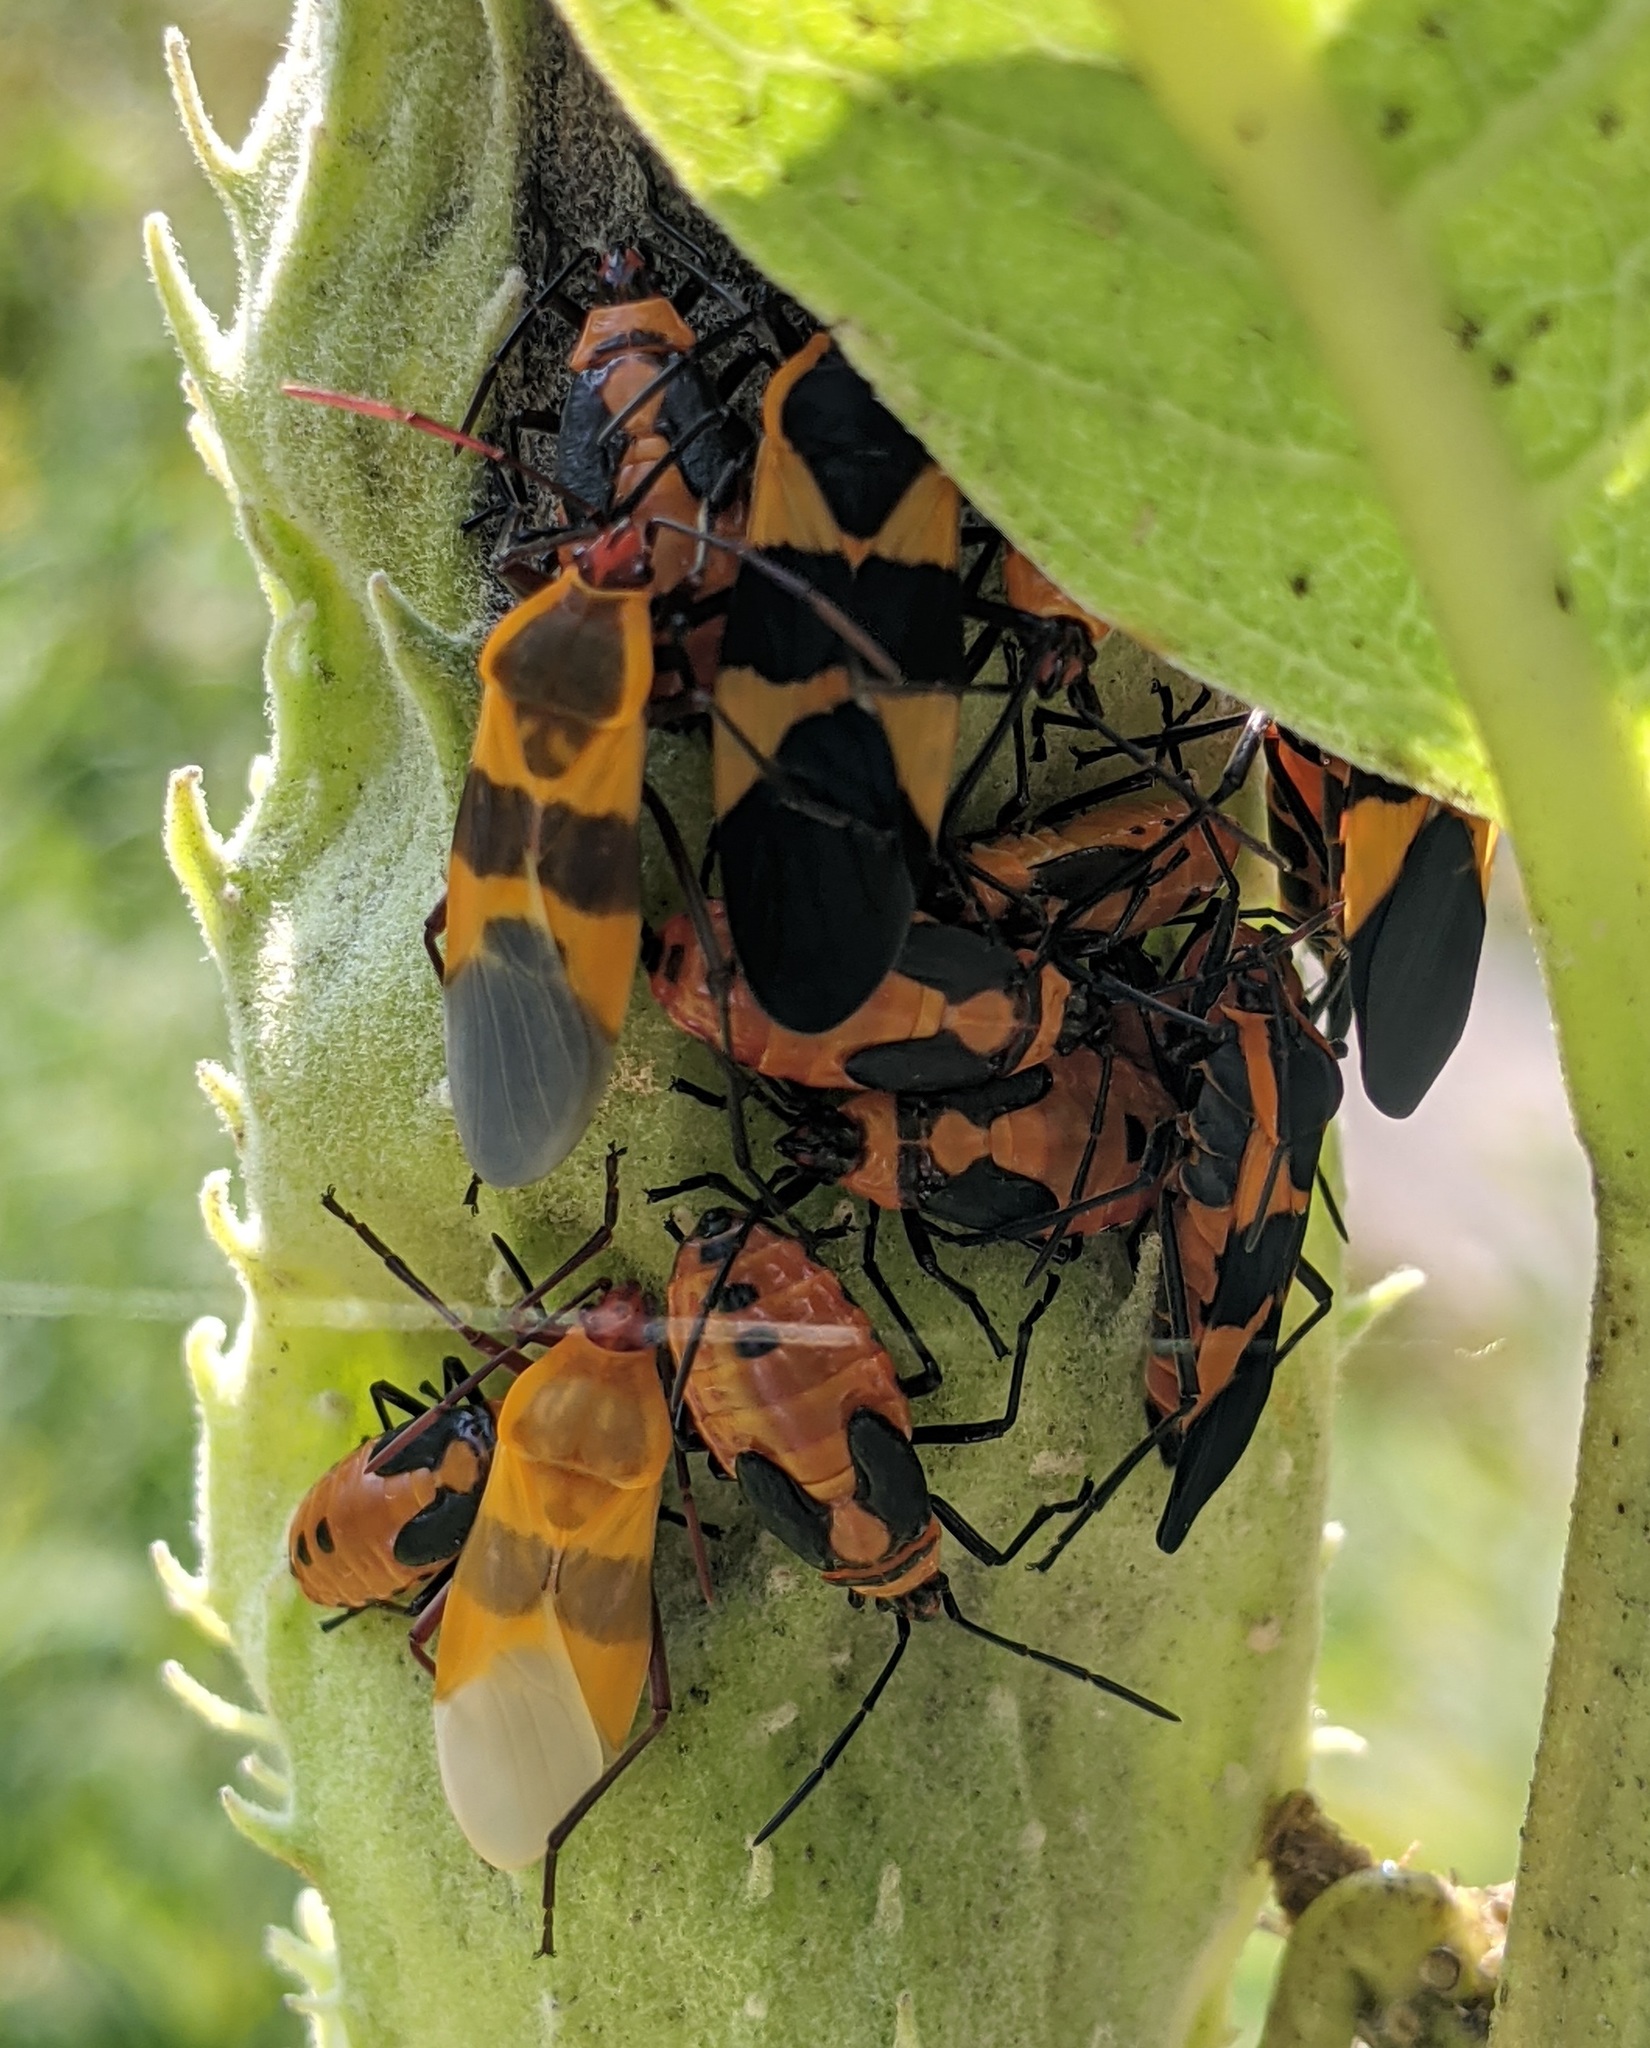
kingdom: Animalia
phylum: Arthropoda
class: Insecta
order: Hemiptera
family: Lygaeidae
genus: Oncopeltus
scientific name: Oncopeltus fasciatus
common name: Large milkweed bug
